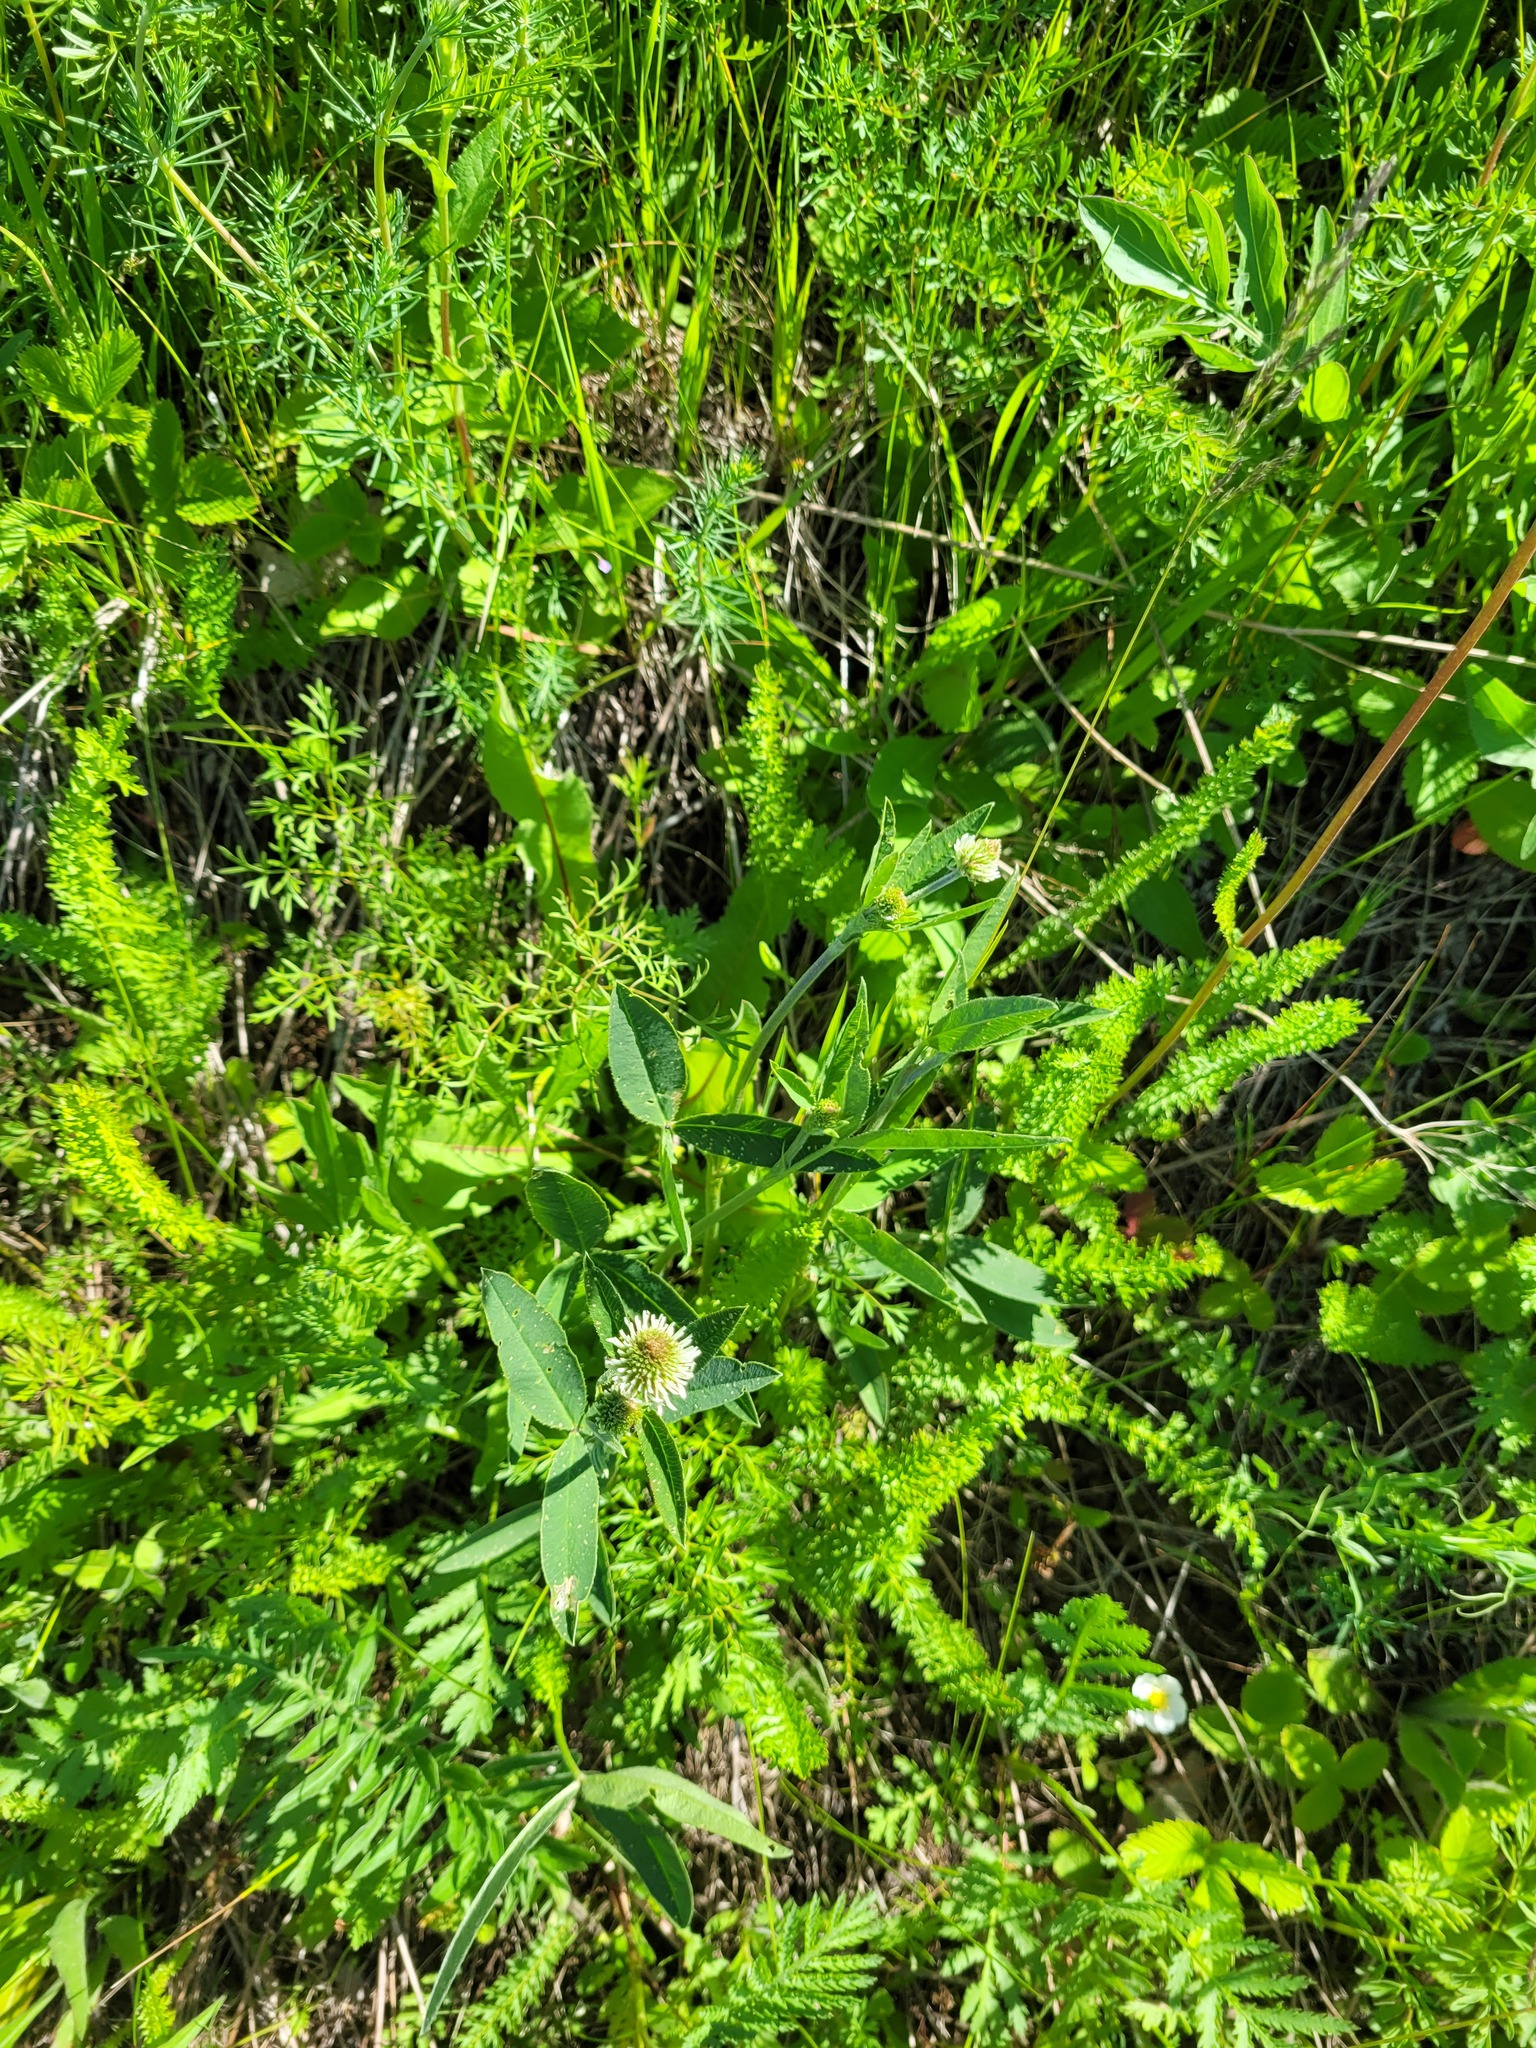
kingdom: Plantae
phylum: Tracheophyta
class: Magnoliopsida
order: Fabales
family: Fabaceae
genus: Trifolium
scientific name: Trifolium montanum
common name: Mountain clover
